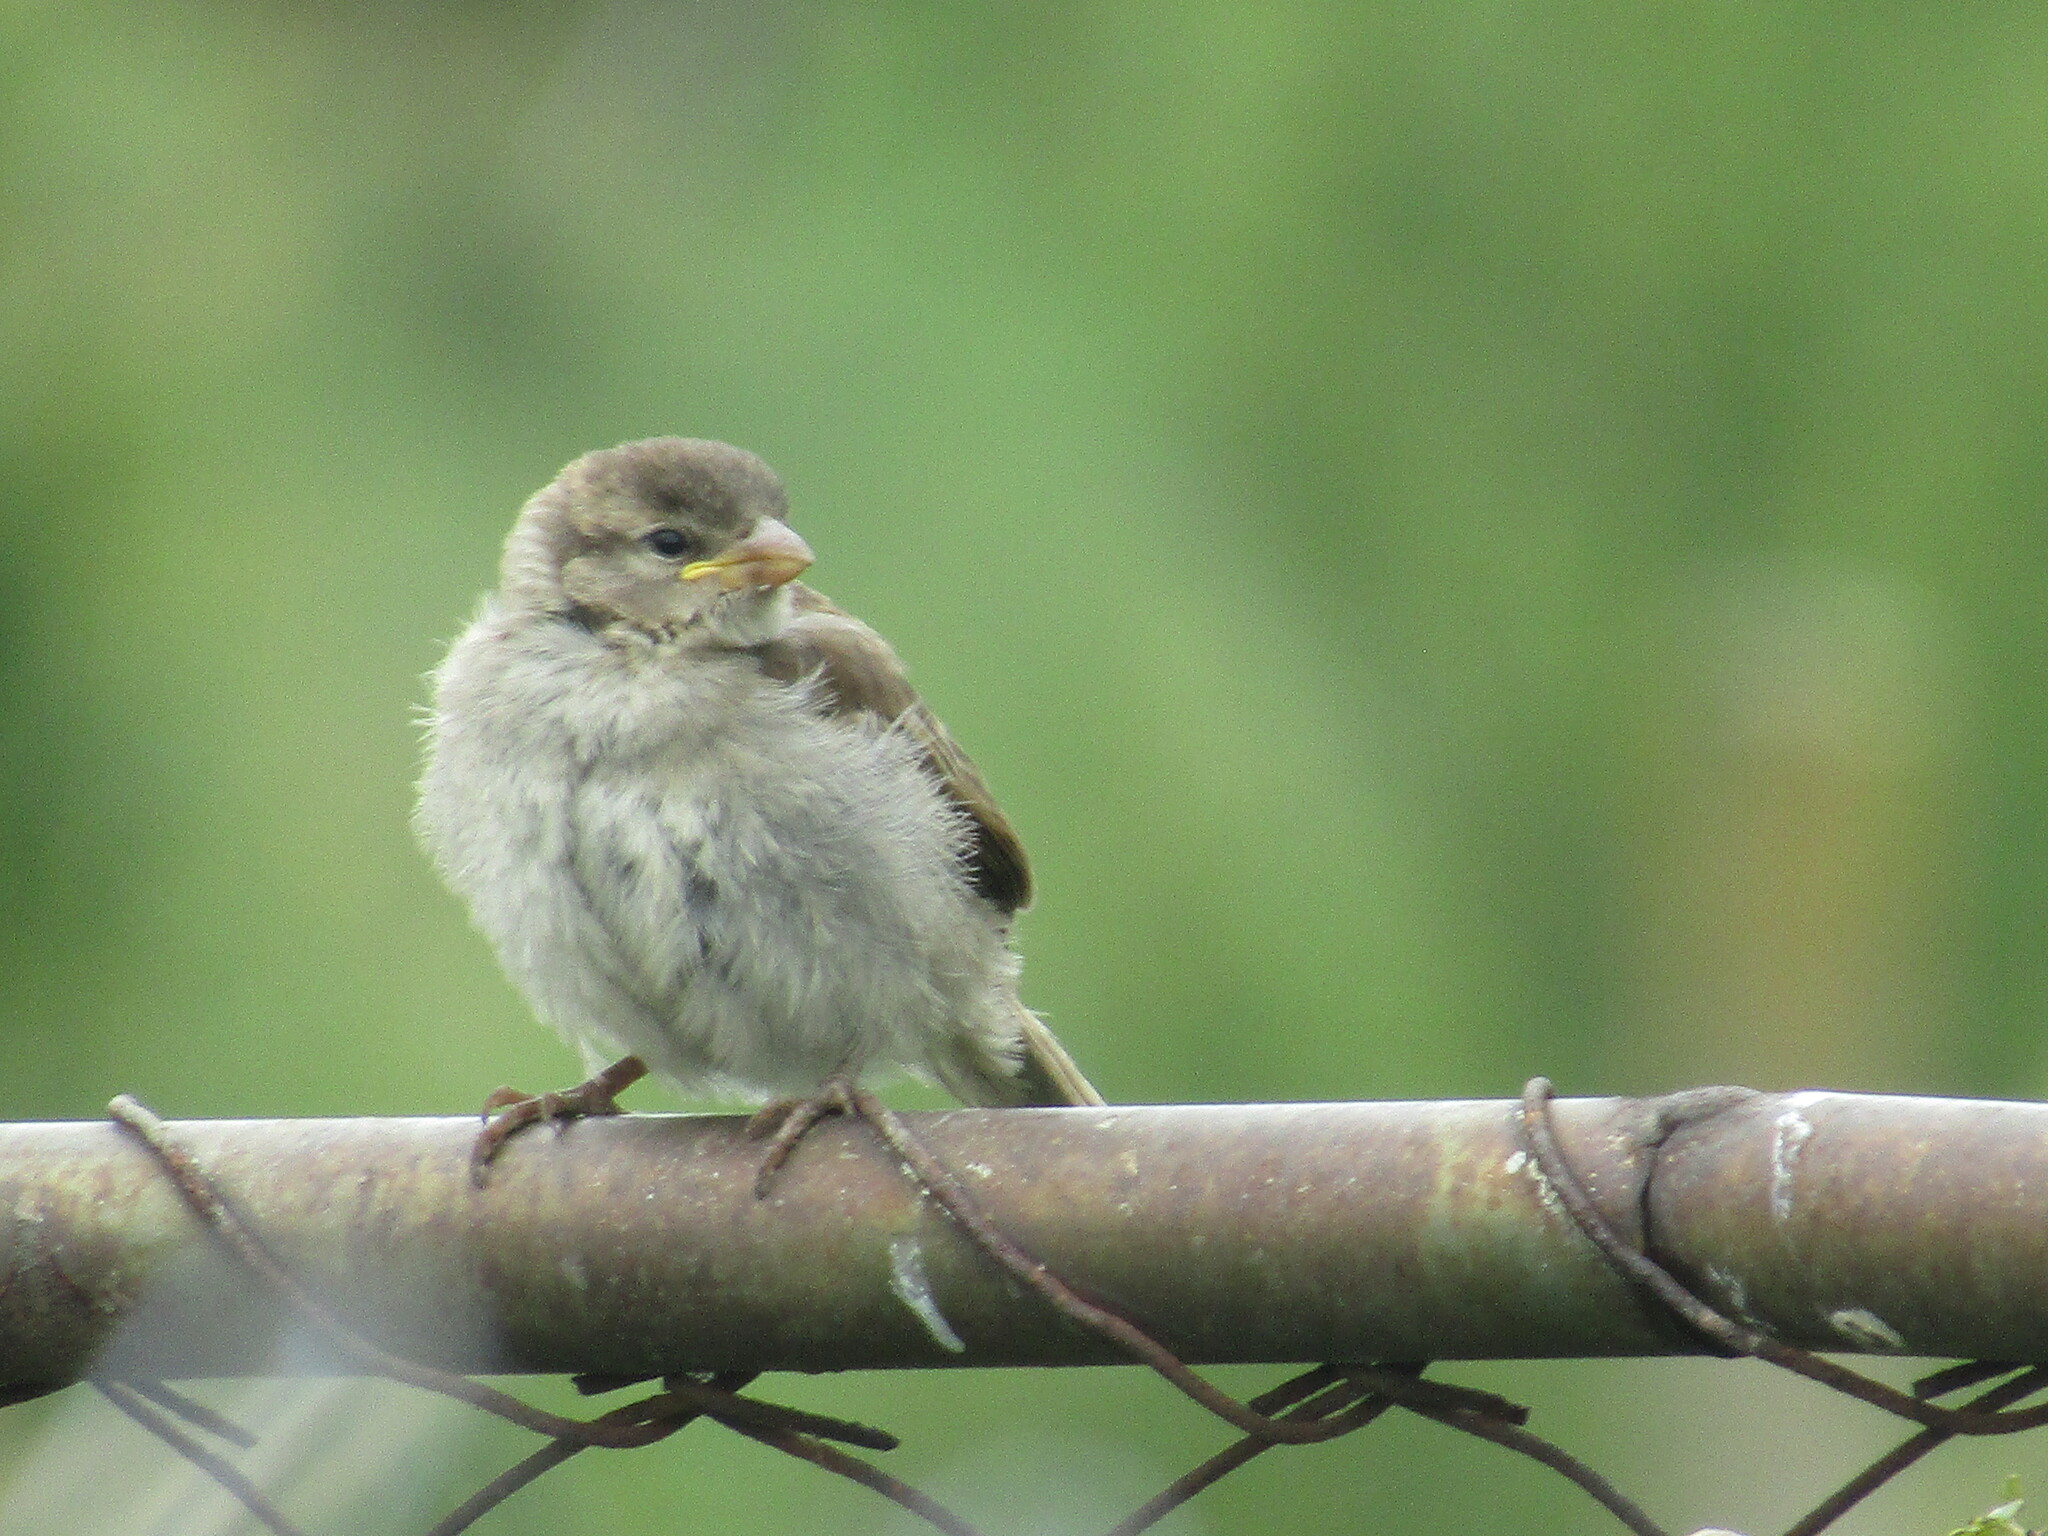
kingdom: Animalia
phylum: Chordata
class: Aves
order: Passeriformes
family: Passeridae
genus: Passer
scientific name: Passer domesticus
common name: House sparrow
